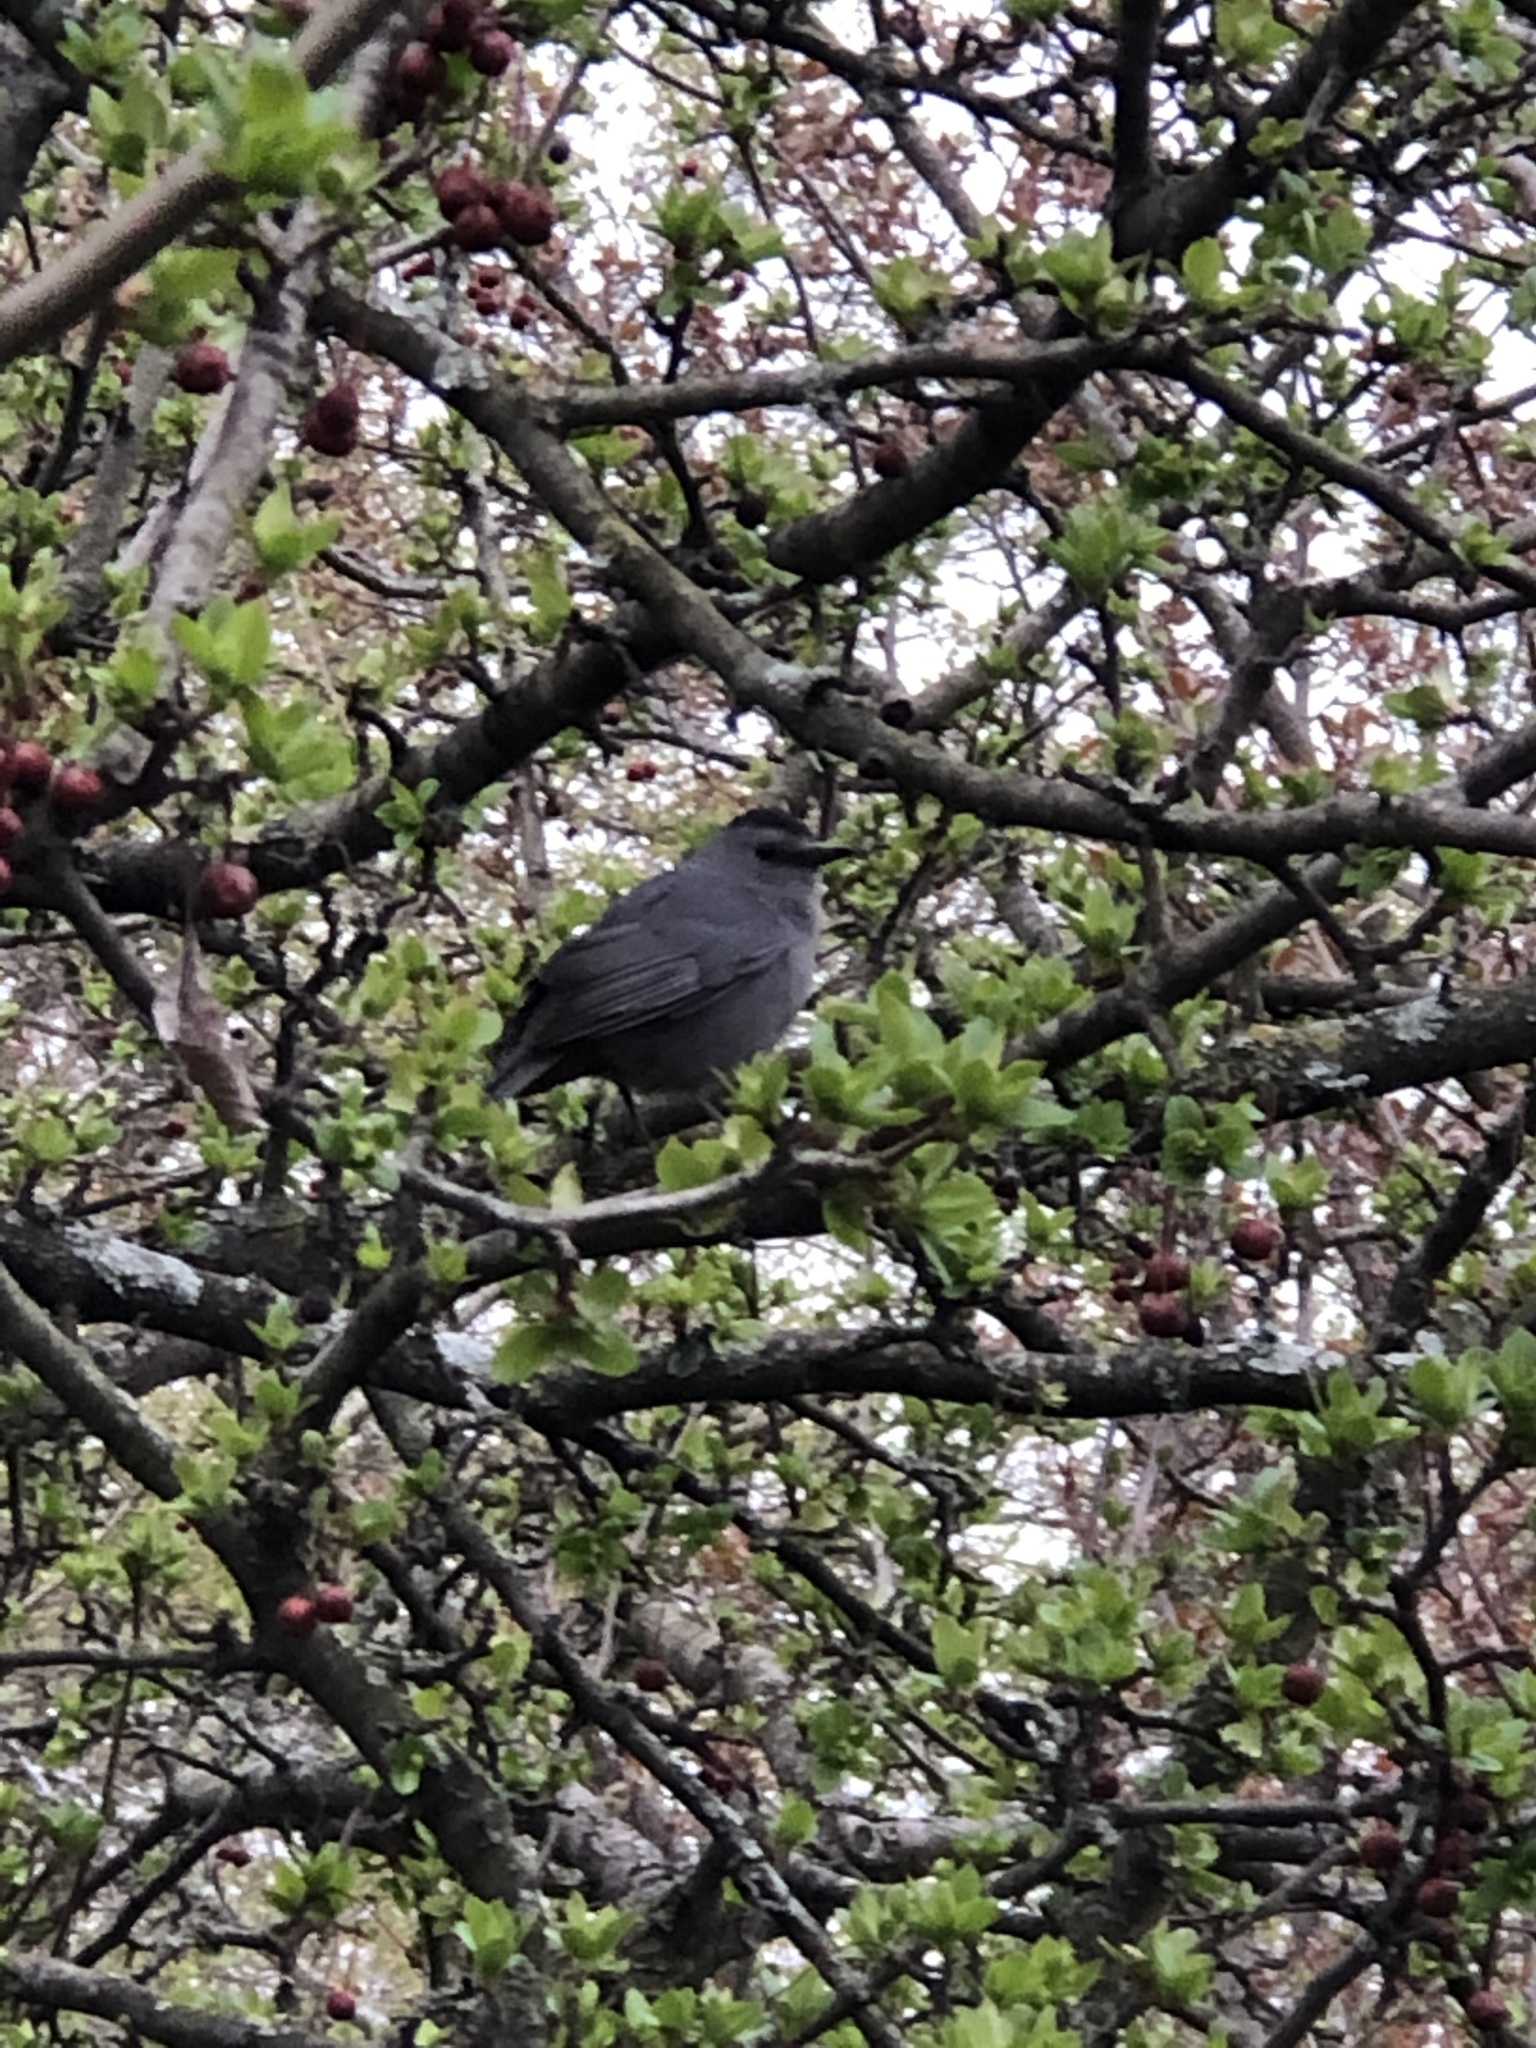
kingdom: Animalia
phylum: Chordata
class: Aves
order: Passeriformes
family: Mimidae
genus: Dumetella
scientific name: Dumetella carolinensis
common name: Gray catbird
